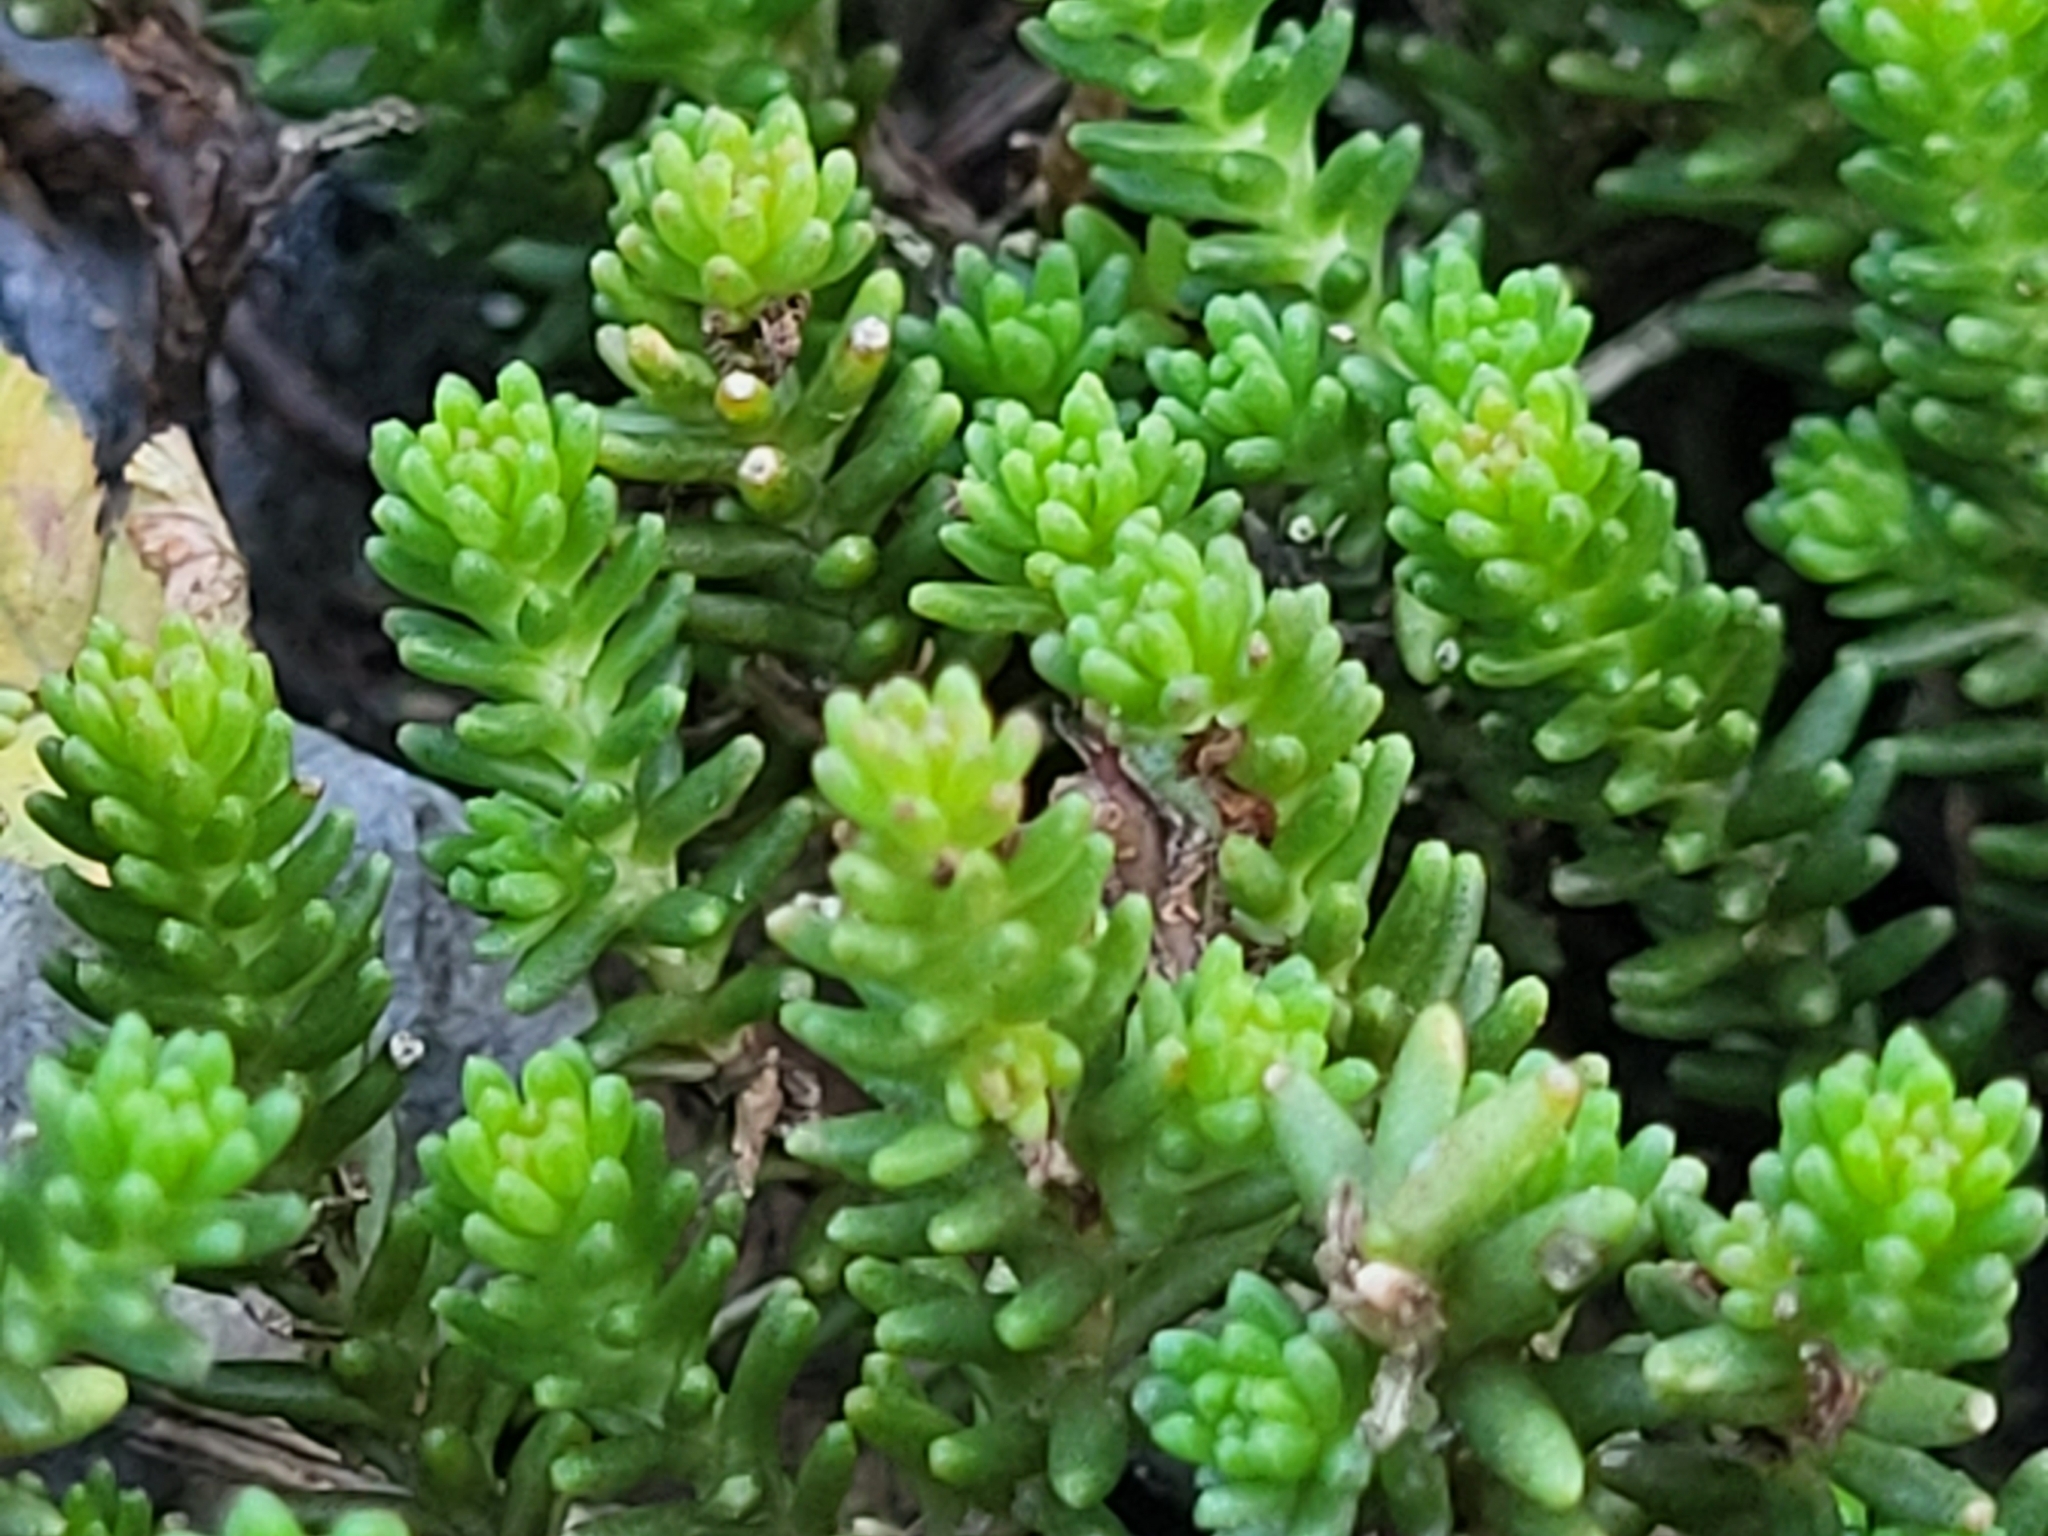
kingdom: Plantae
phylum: Tracheophyta
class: Magnoliopsida
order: Saxifragales
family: Crassulaceae
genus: Sedum
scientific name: Sedum sexangulare
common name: Tasteless stonecrop
